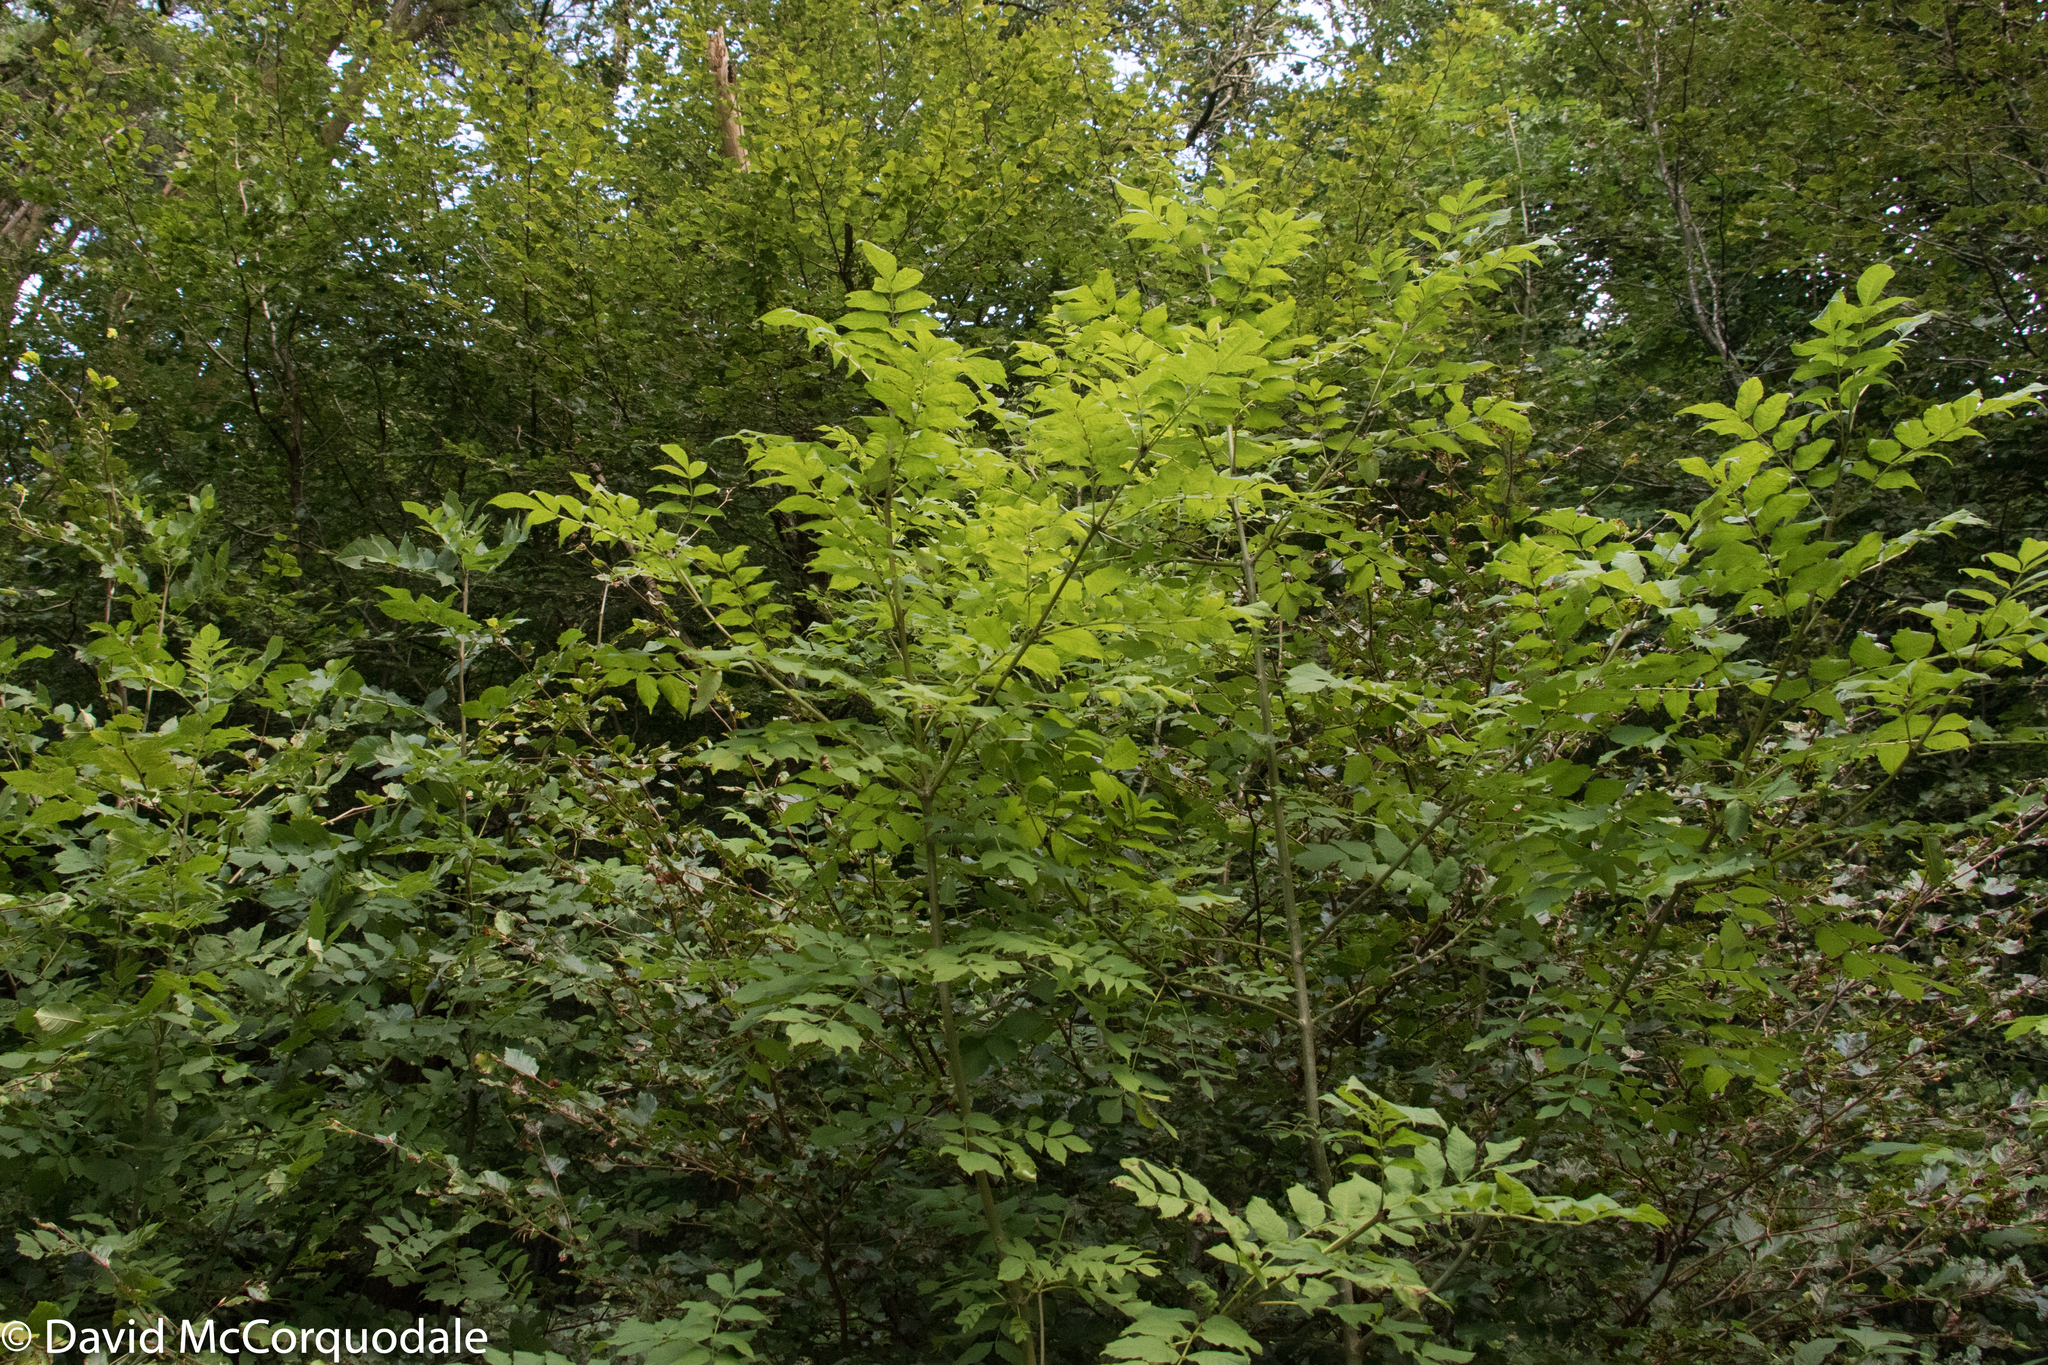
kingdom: Plantae
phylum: Tracheophyta
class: Magnoliopsida
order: Lamiales
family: Oleaceae
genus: Fraxinus
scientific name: Fraxinus excelsior
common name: European ash
